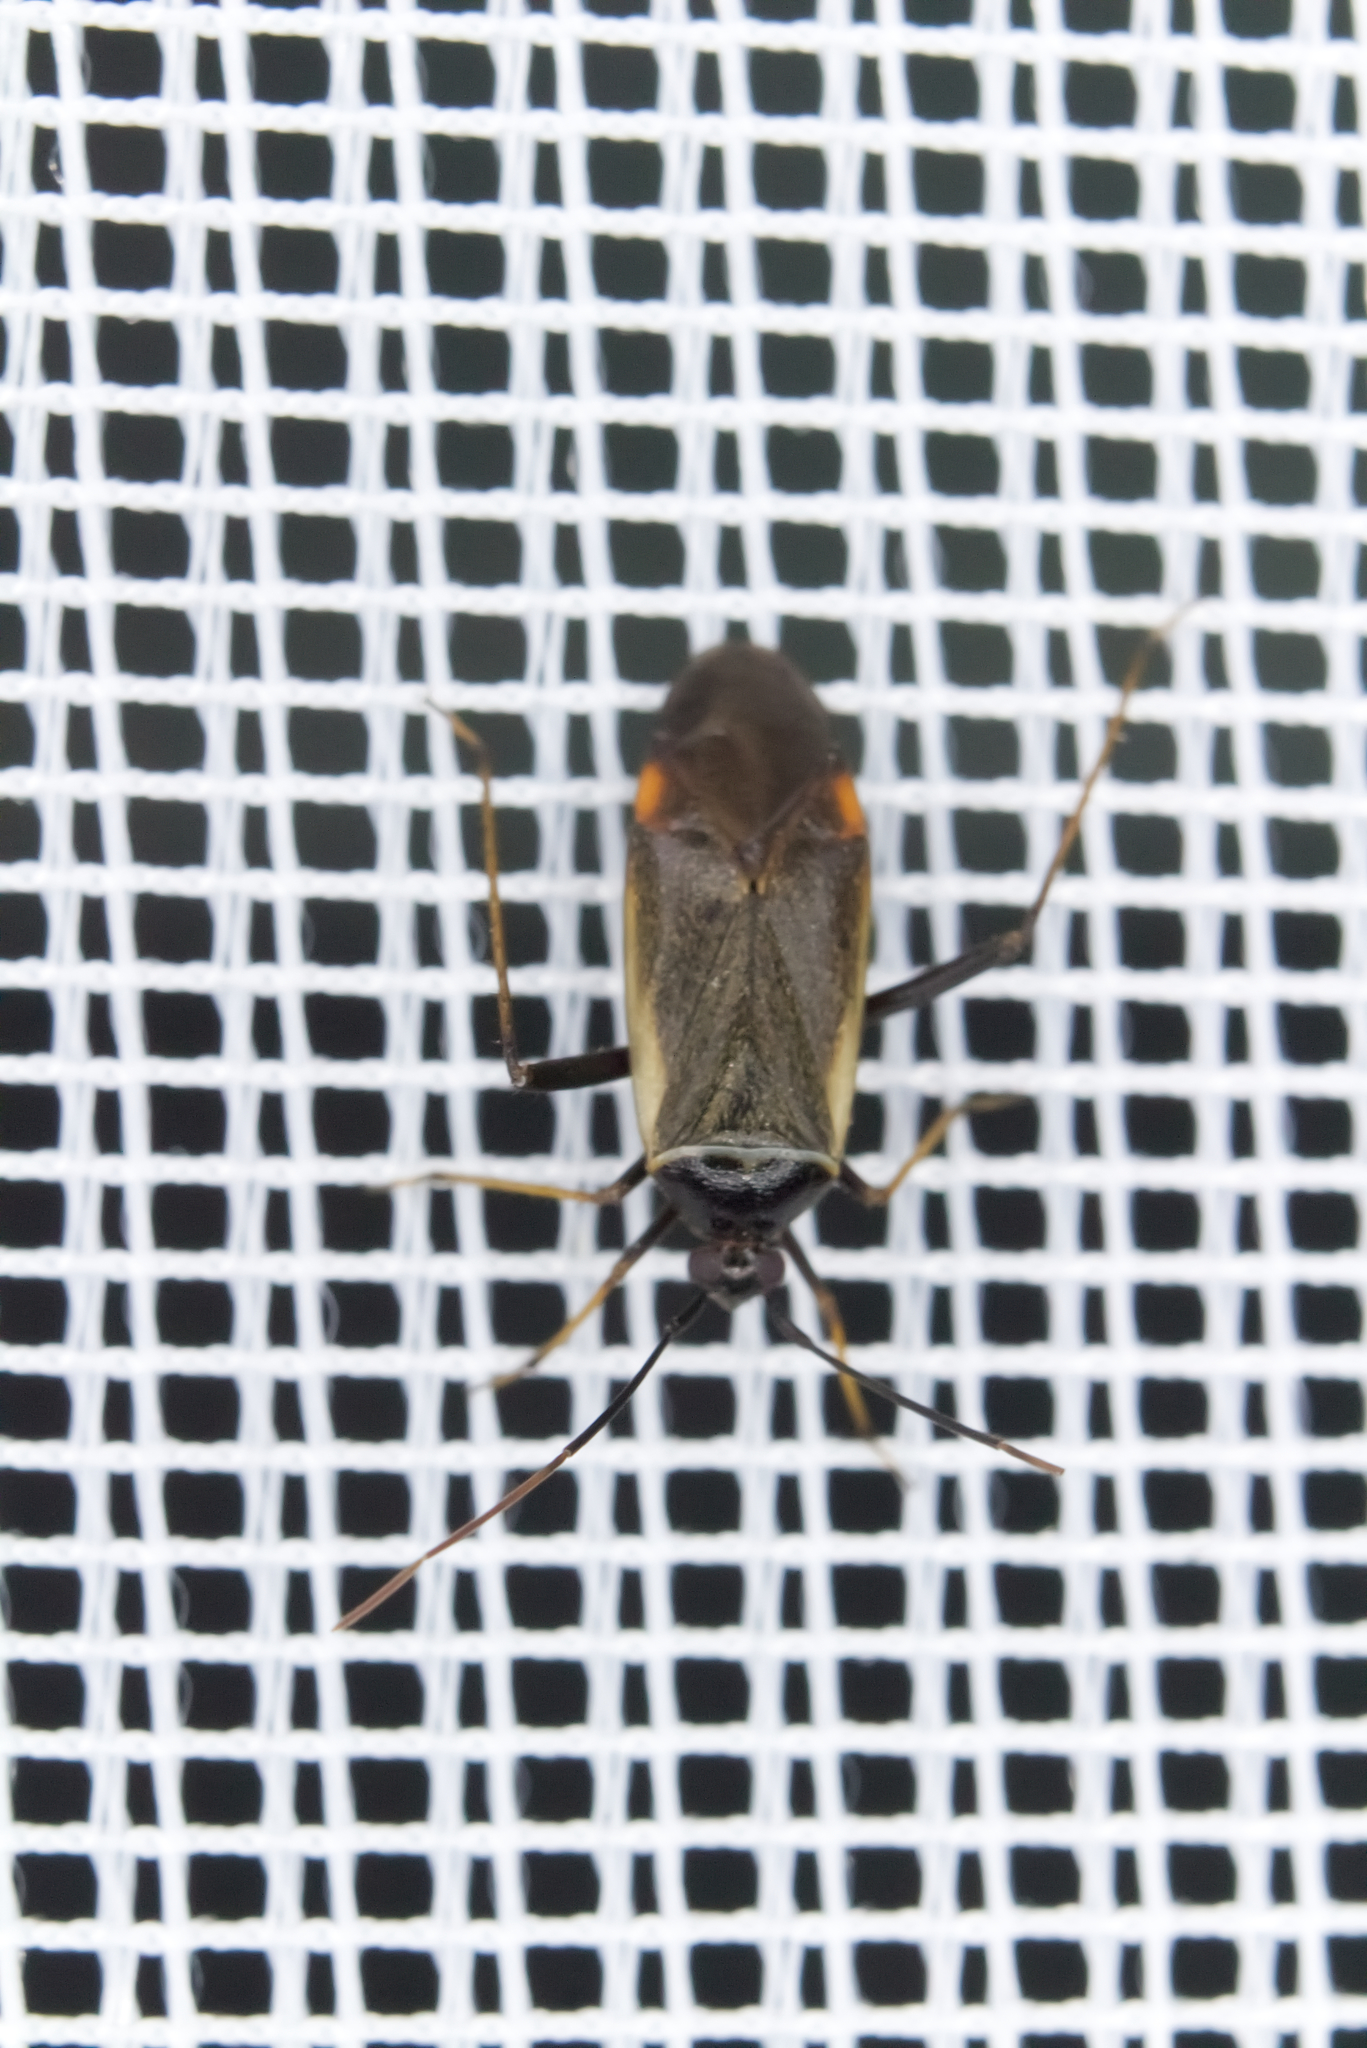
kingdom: Animalia
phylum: Arthropoda
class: Insecta
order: Hemiptera
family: Miridae
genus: Adelphocoris
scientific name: Adelphocoris seticornis
